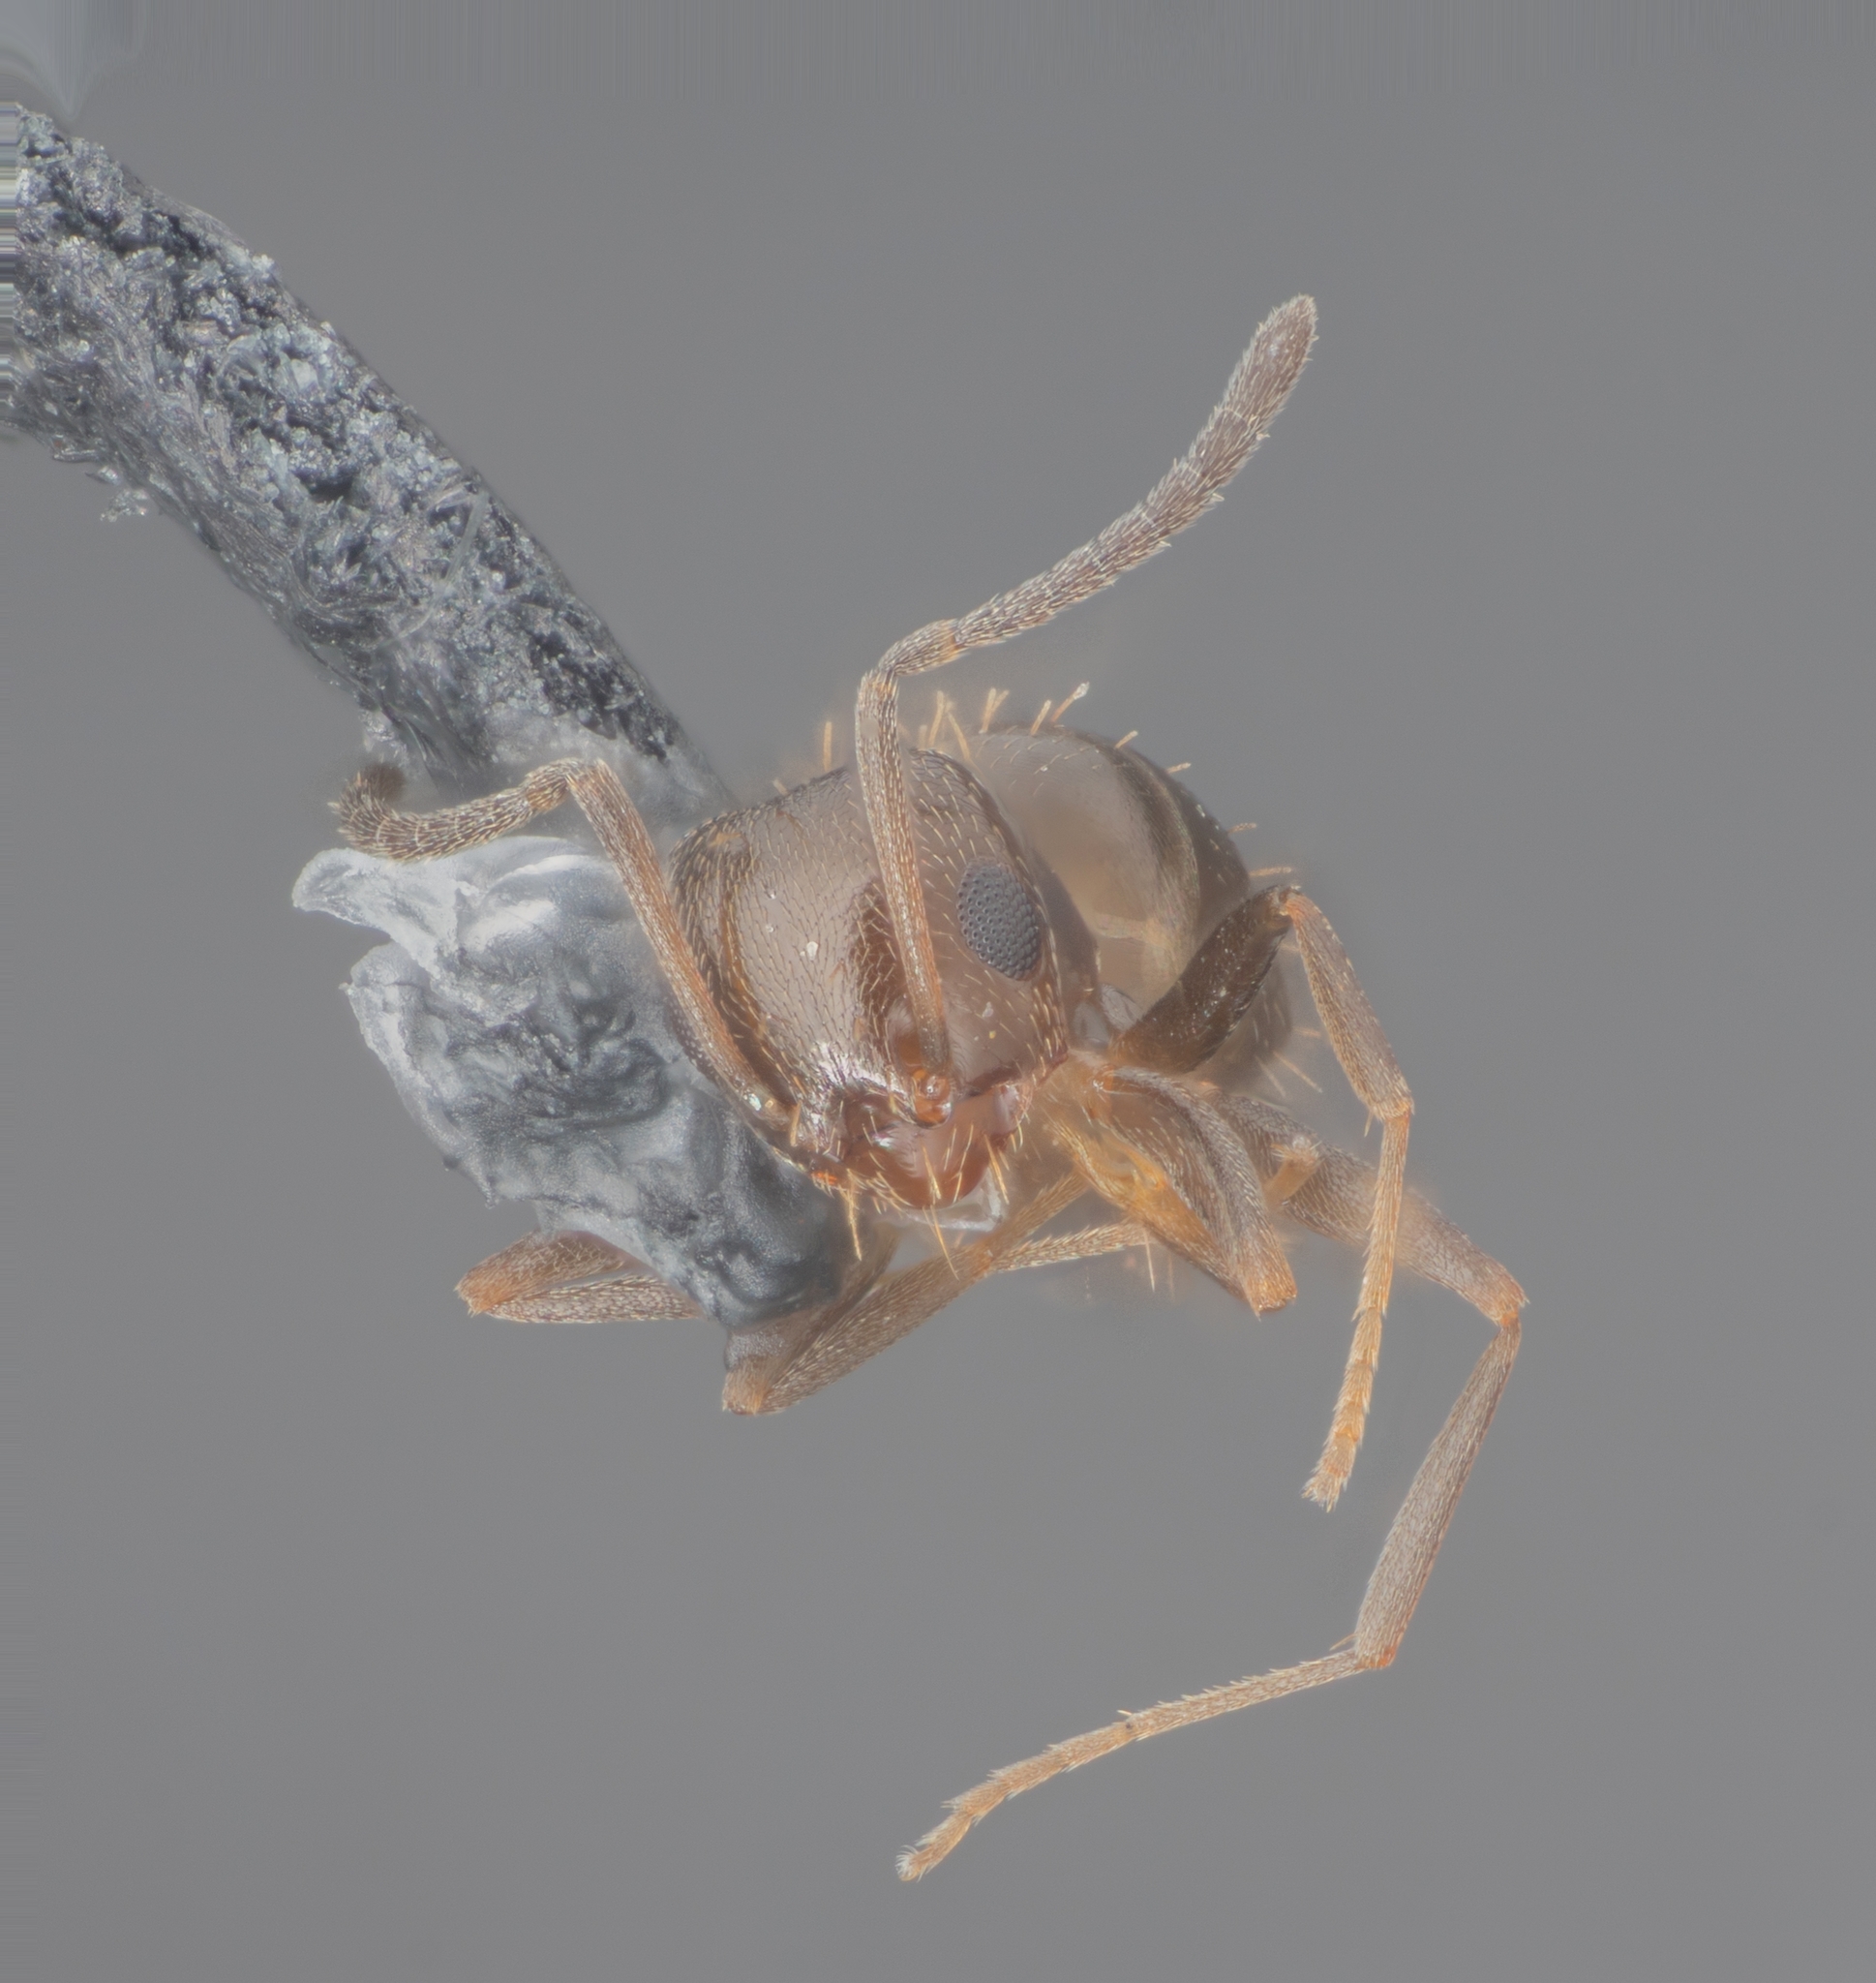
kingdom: Animalia
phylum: Arthropoda
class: Insecta
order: Hymenoptera
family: Formicidae
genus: Brachymyrmex
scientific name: Brachymyrmex patagonicus
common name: Dark rover ant
